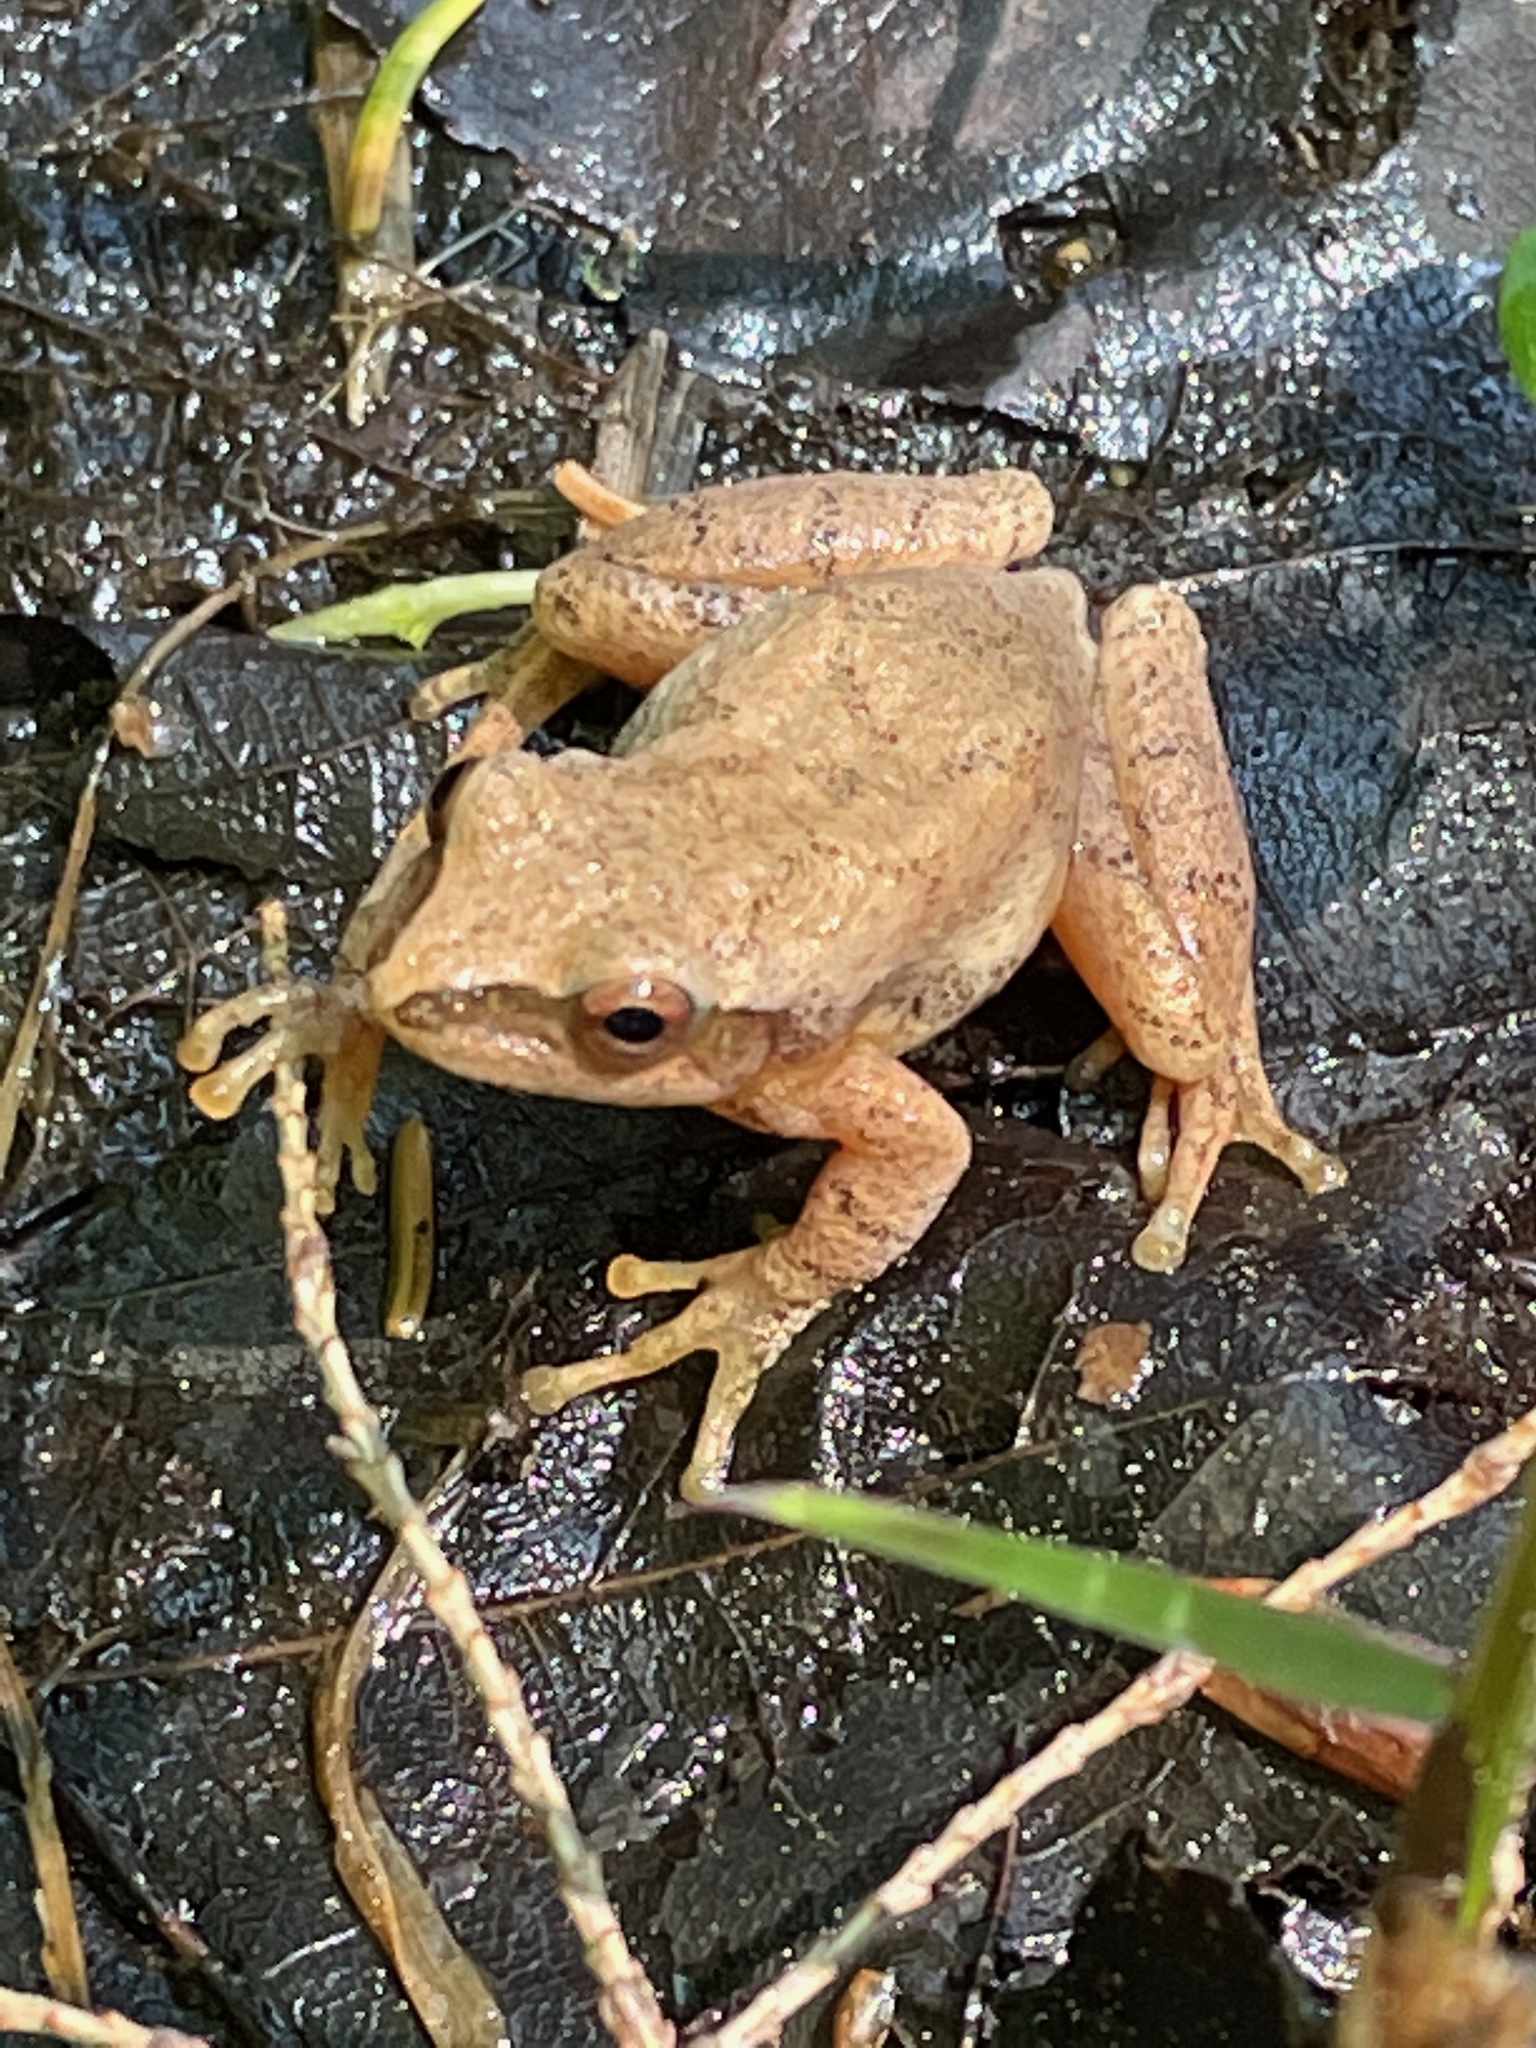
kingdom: Animalia
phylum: Chordata
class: Amphibia
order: Anura
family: Hylidae
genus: Pseudacris
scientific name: Pseudacris crucifer
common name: Spring peeper
